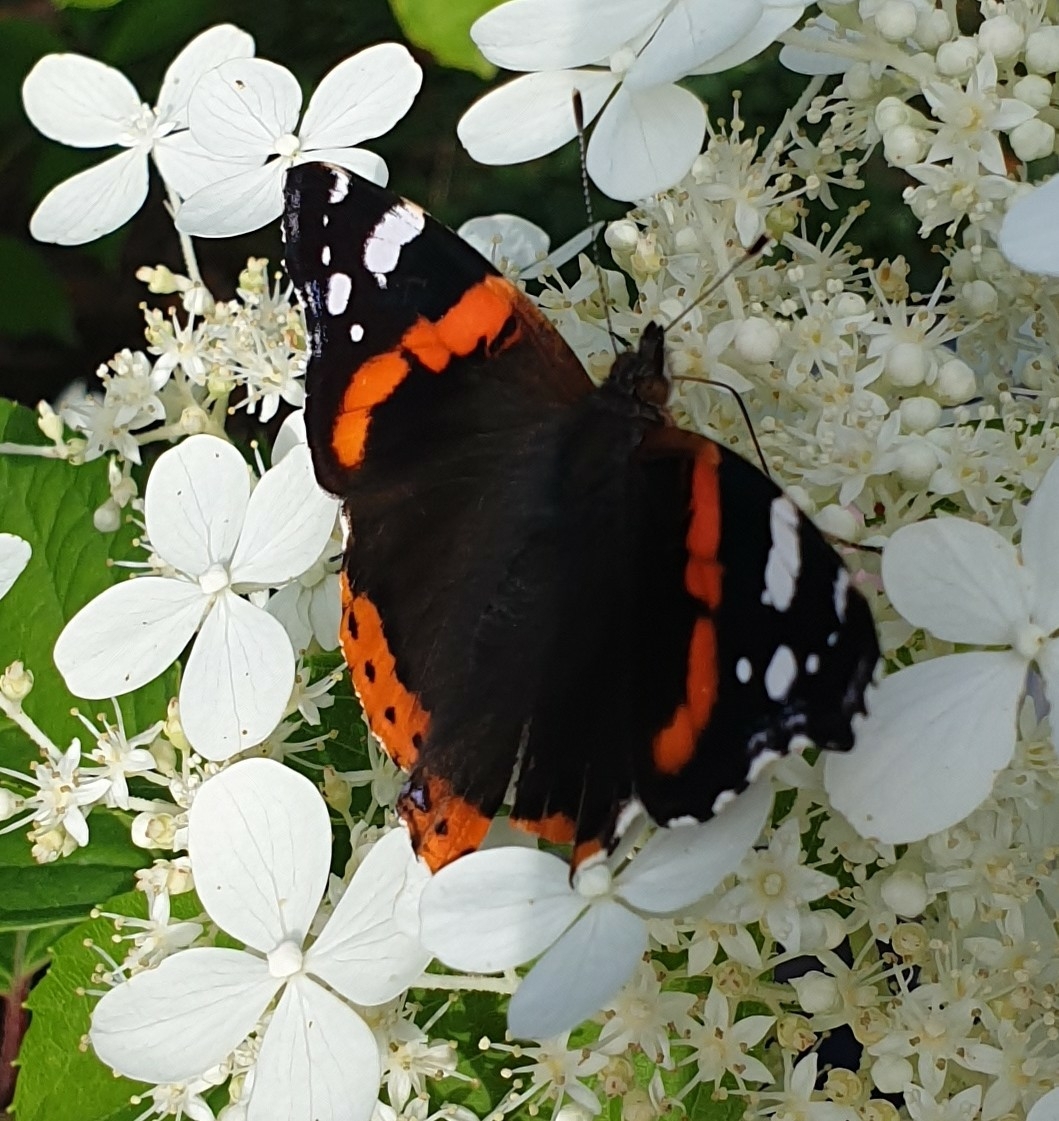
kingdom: Animalia
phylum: Arthropoda
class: Insecta
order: Lepidoptera
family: Nymphalidae
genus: Vanessa
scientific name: Vanessa atalanta
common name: Red admiral
